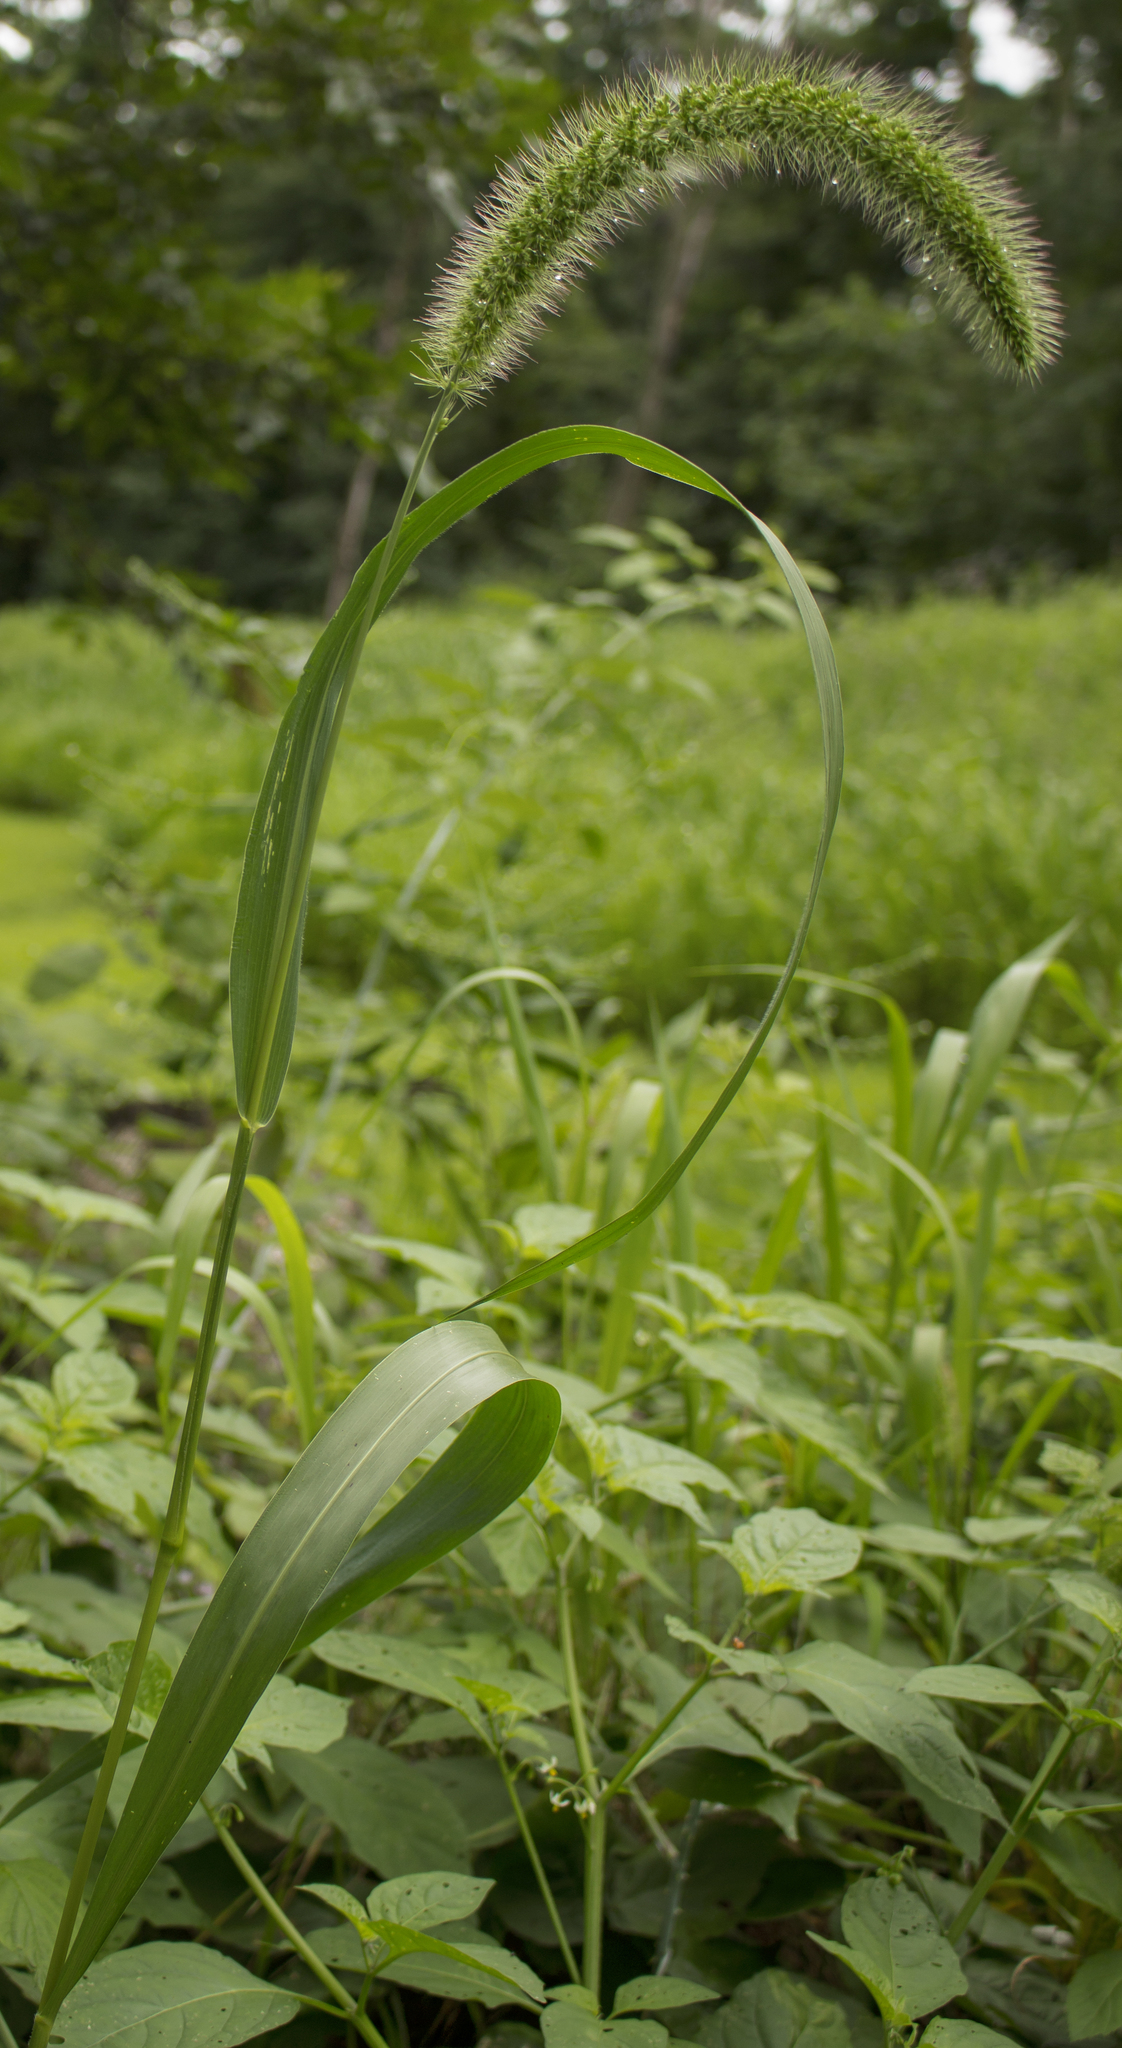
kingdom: Plantae
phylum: Tracheophyta
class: Liliopsida
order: Poales
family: Poaceae
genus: Setaria
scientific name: Setaria faberi
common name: Nodding bristle-grass
